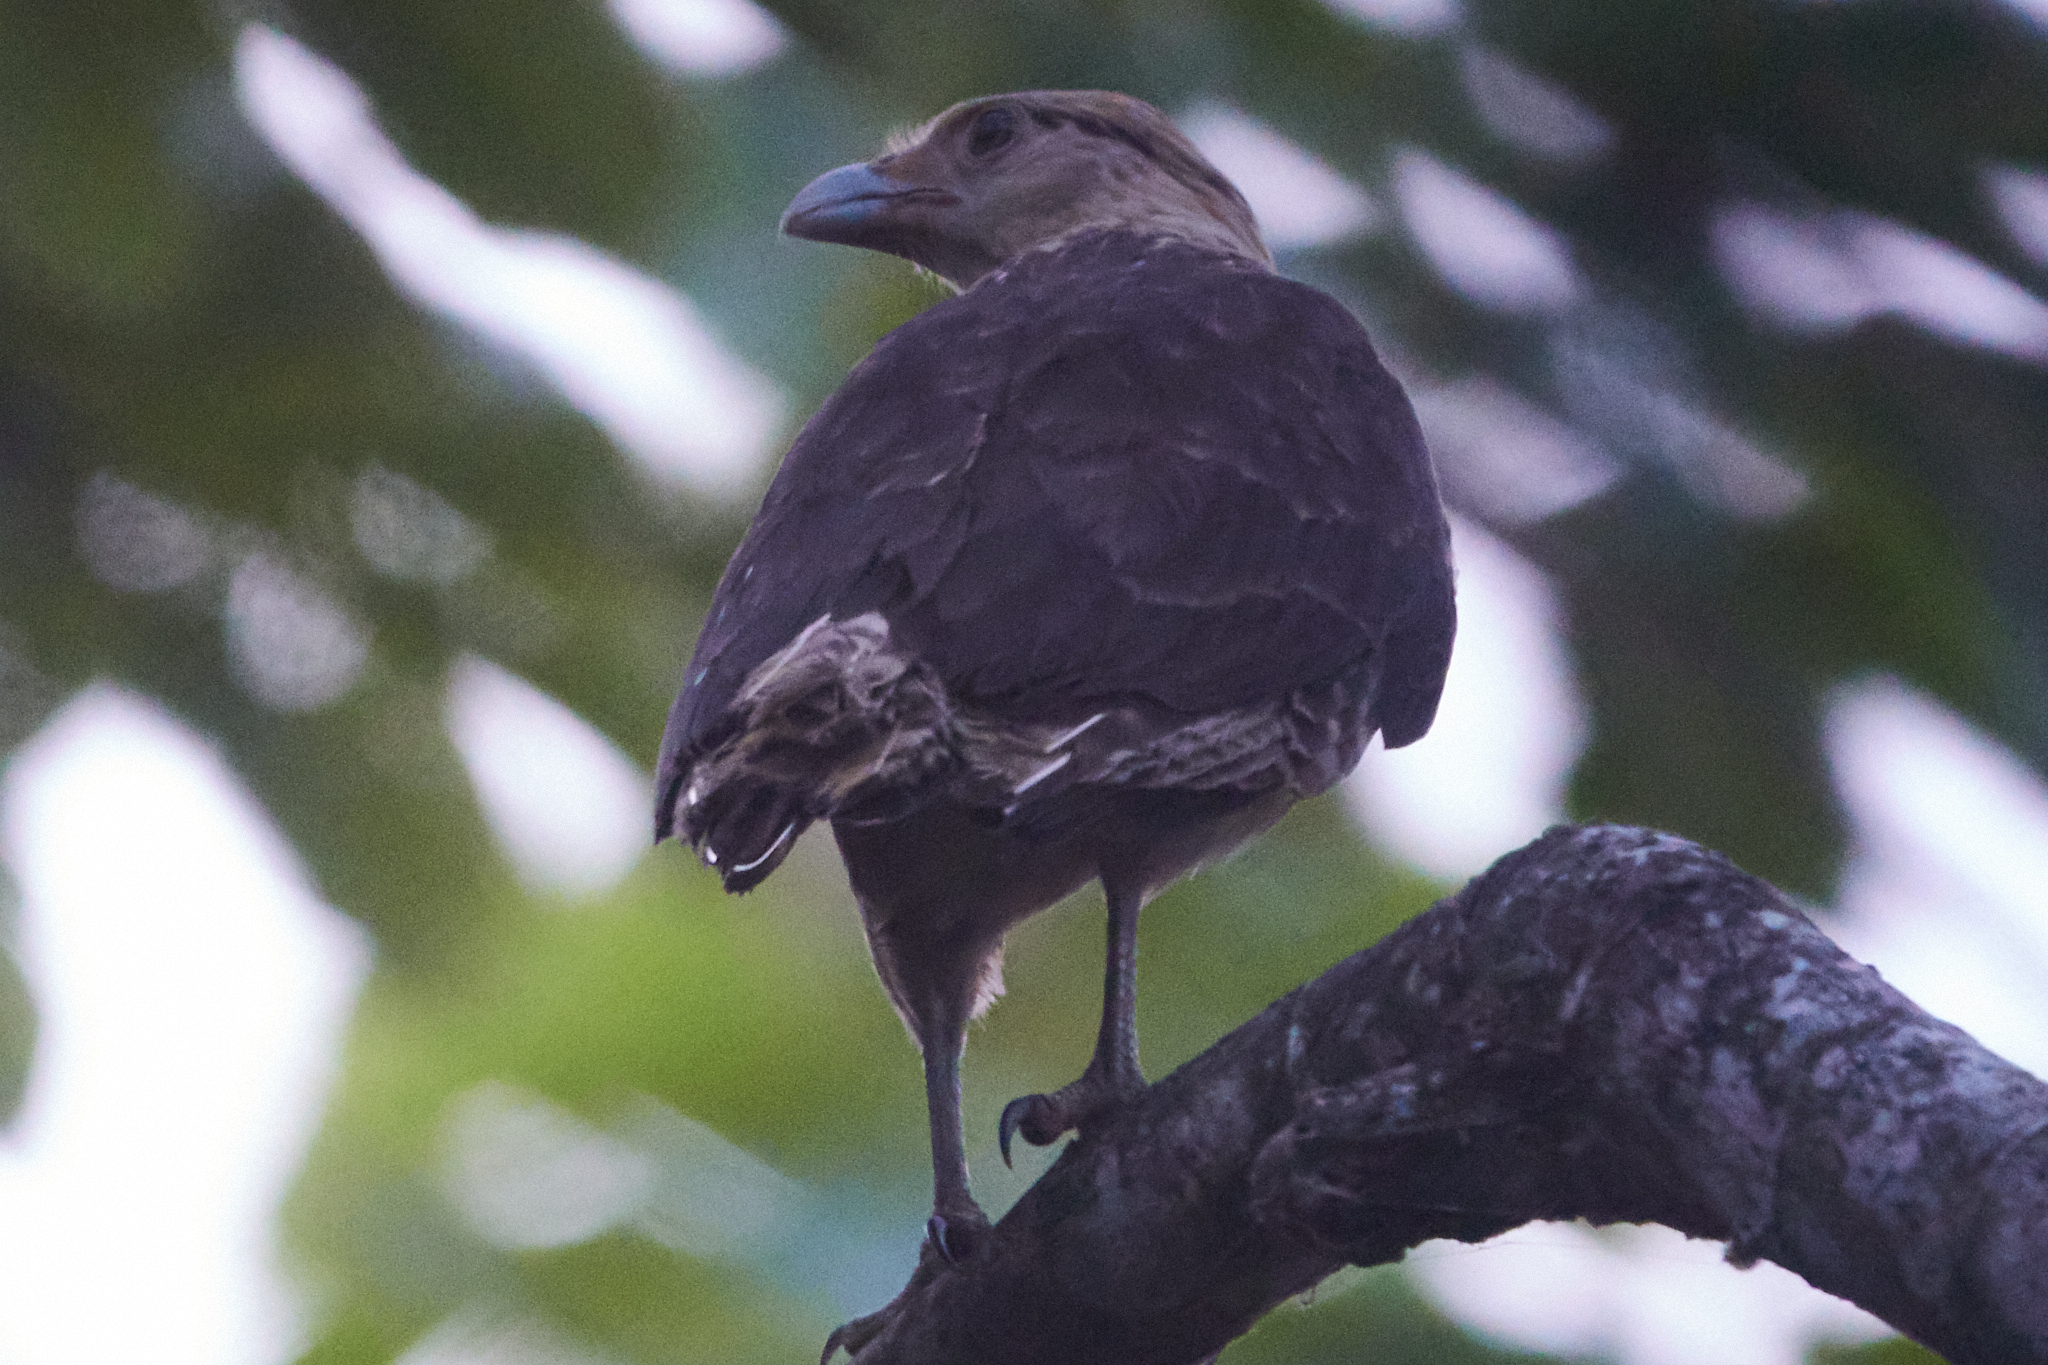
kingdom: Animalia
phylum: Chordata
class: Aves
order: Falconiformes
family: Falconidae
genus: Daptrius
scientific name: Daptrius
